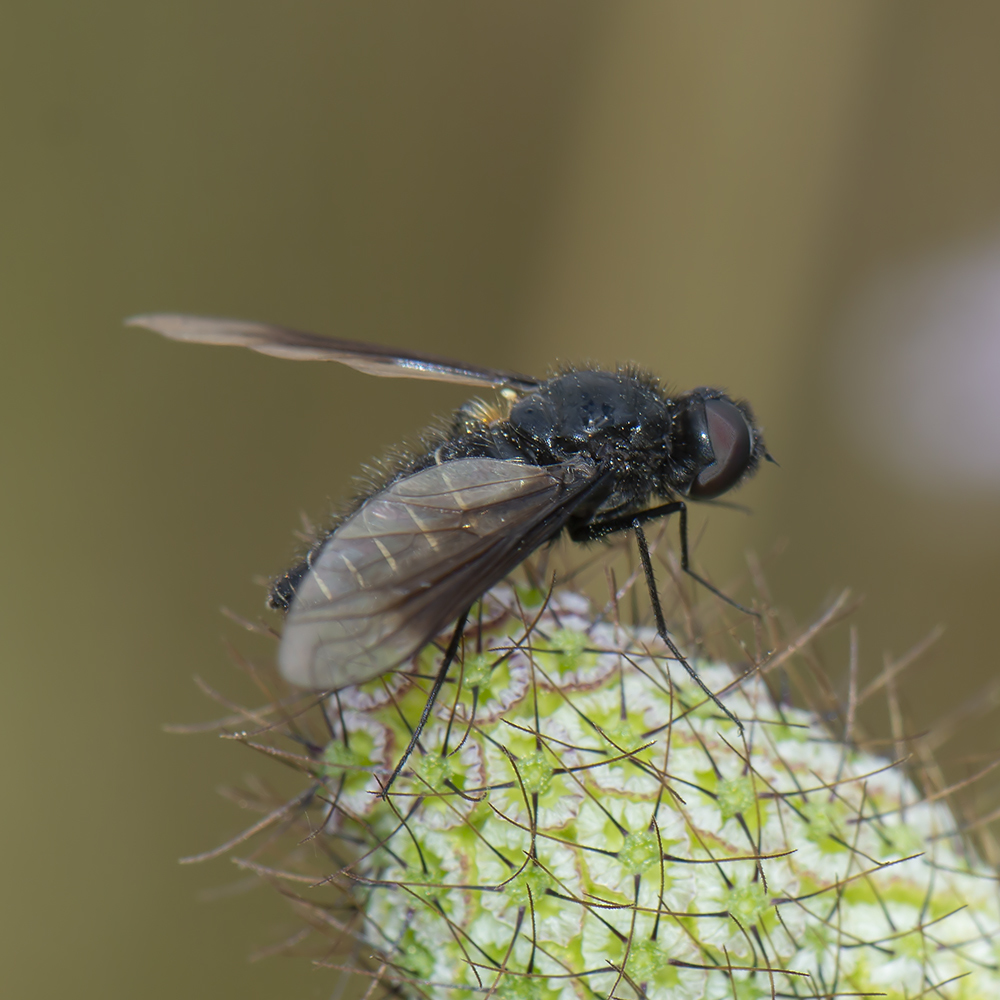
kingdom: Animalia
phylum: Arthropoda
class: Insecta
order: Diptera
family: Bombyliidae
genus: Lomatia
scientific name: Lomatia sabaea
